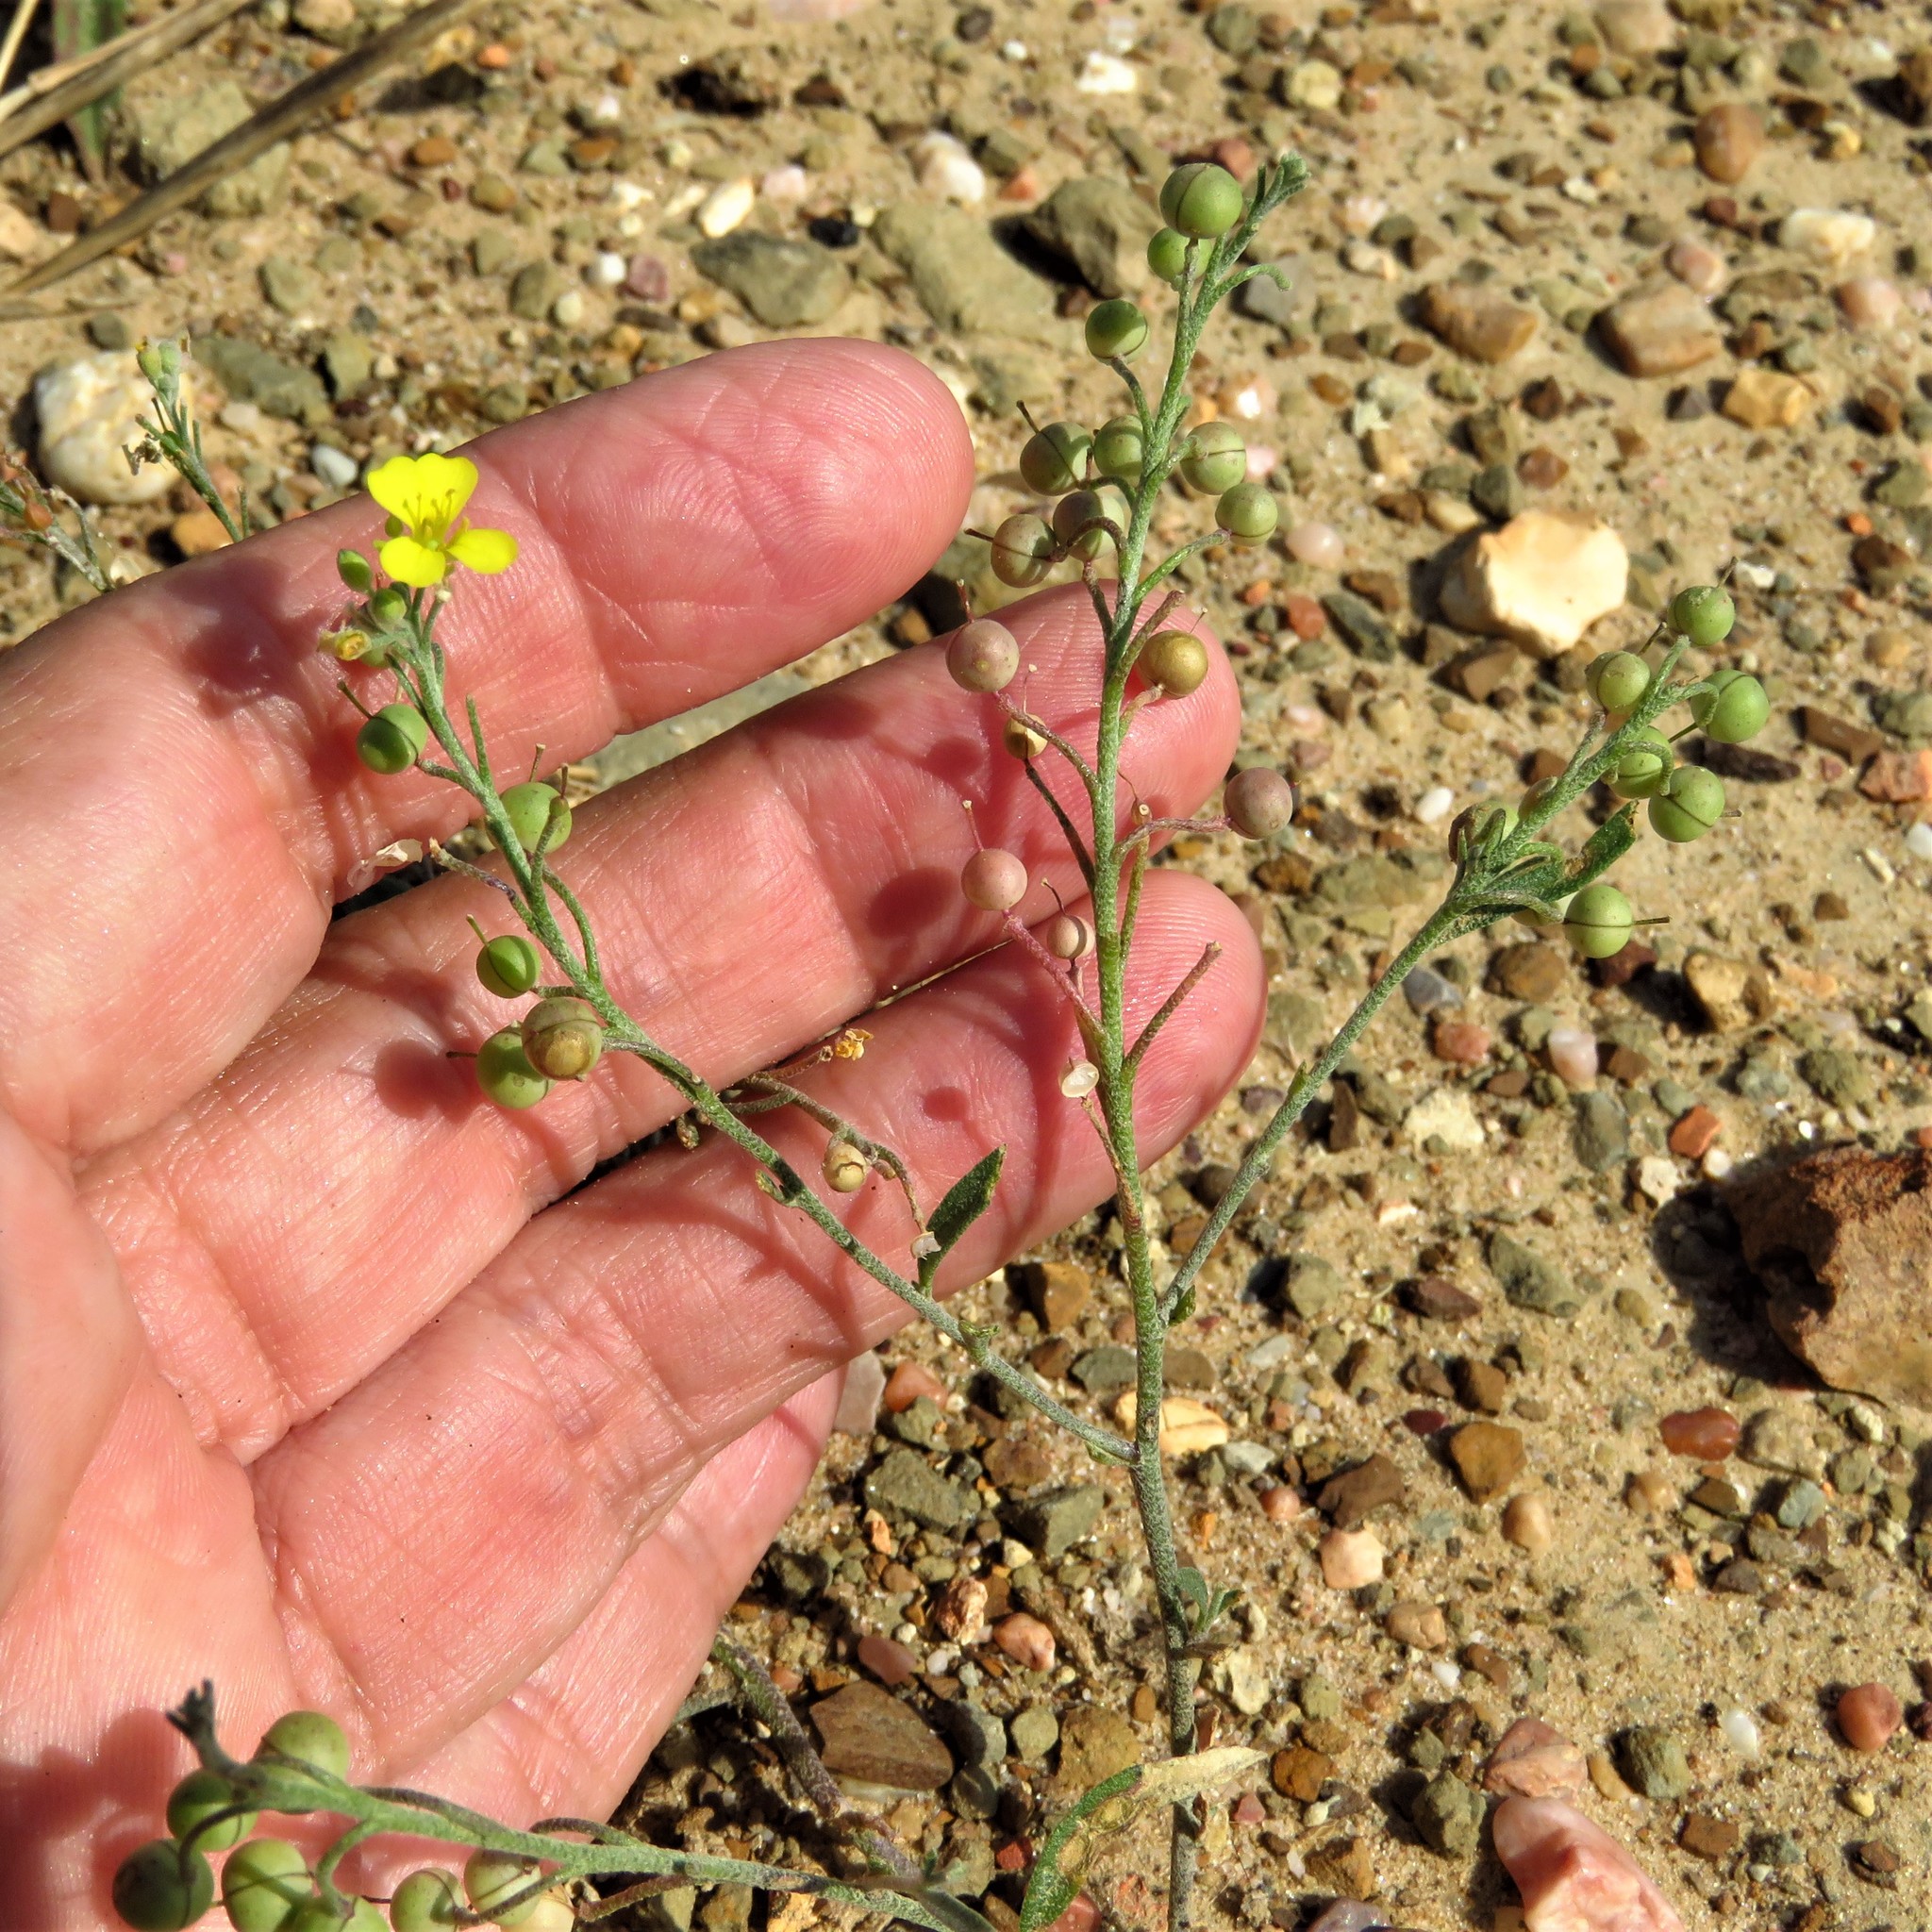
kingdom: Plantae
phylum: Tracheophyta
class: Magnoliopsida
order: Brassicales
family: Brassicaceae
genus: Physaria
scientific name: Physaria gordonii
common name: Gordon's bladderpod
